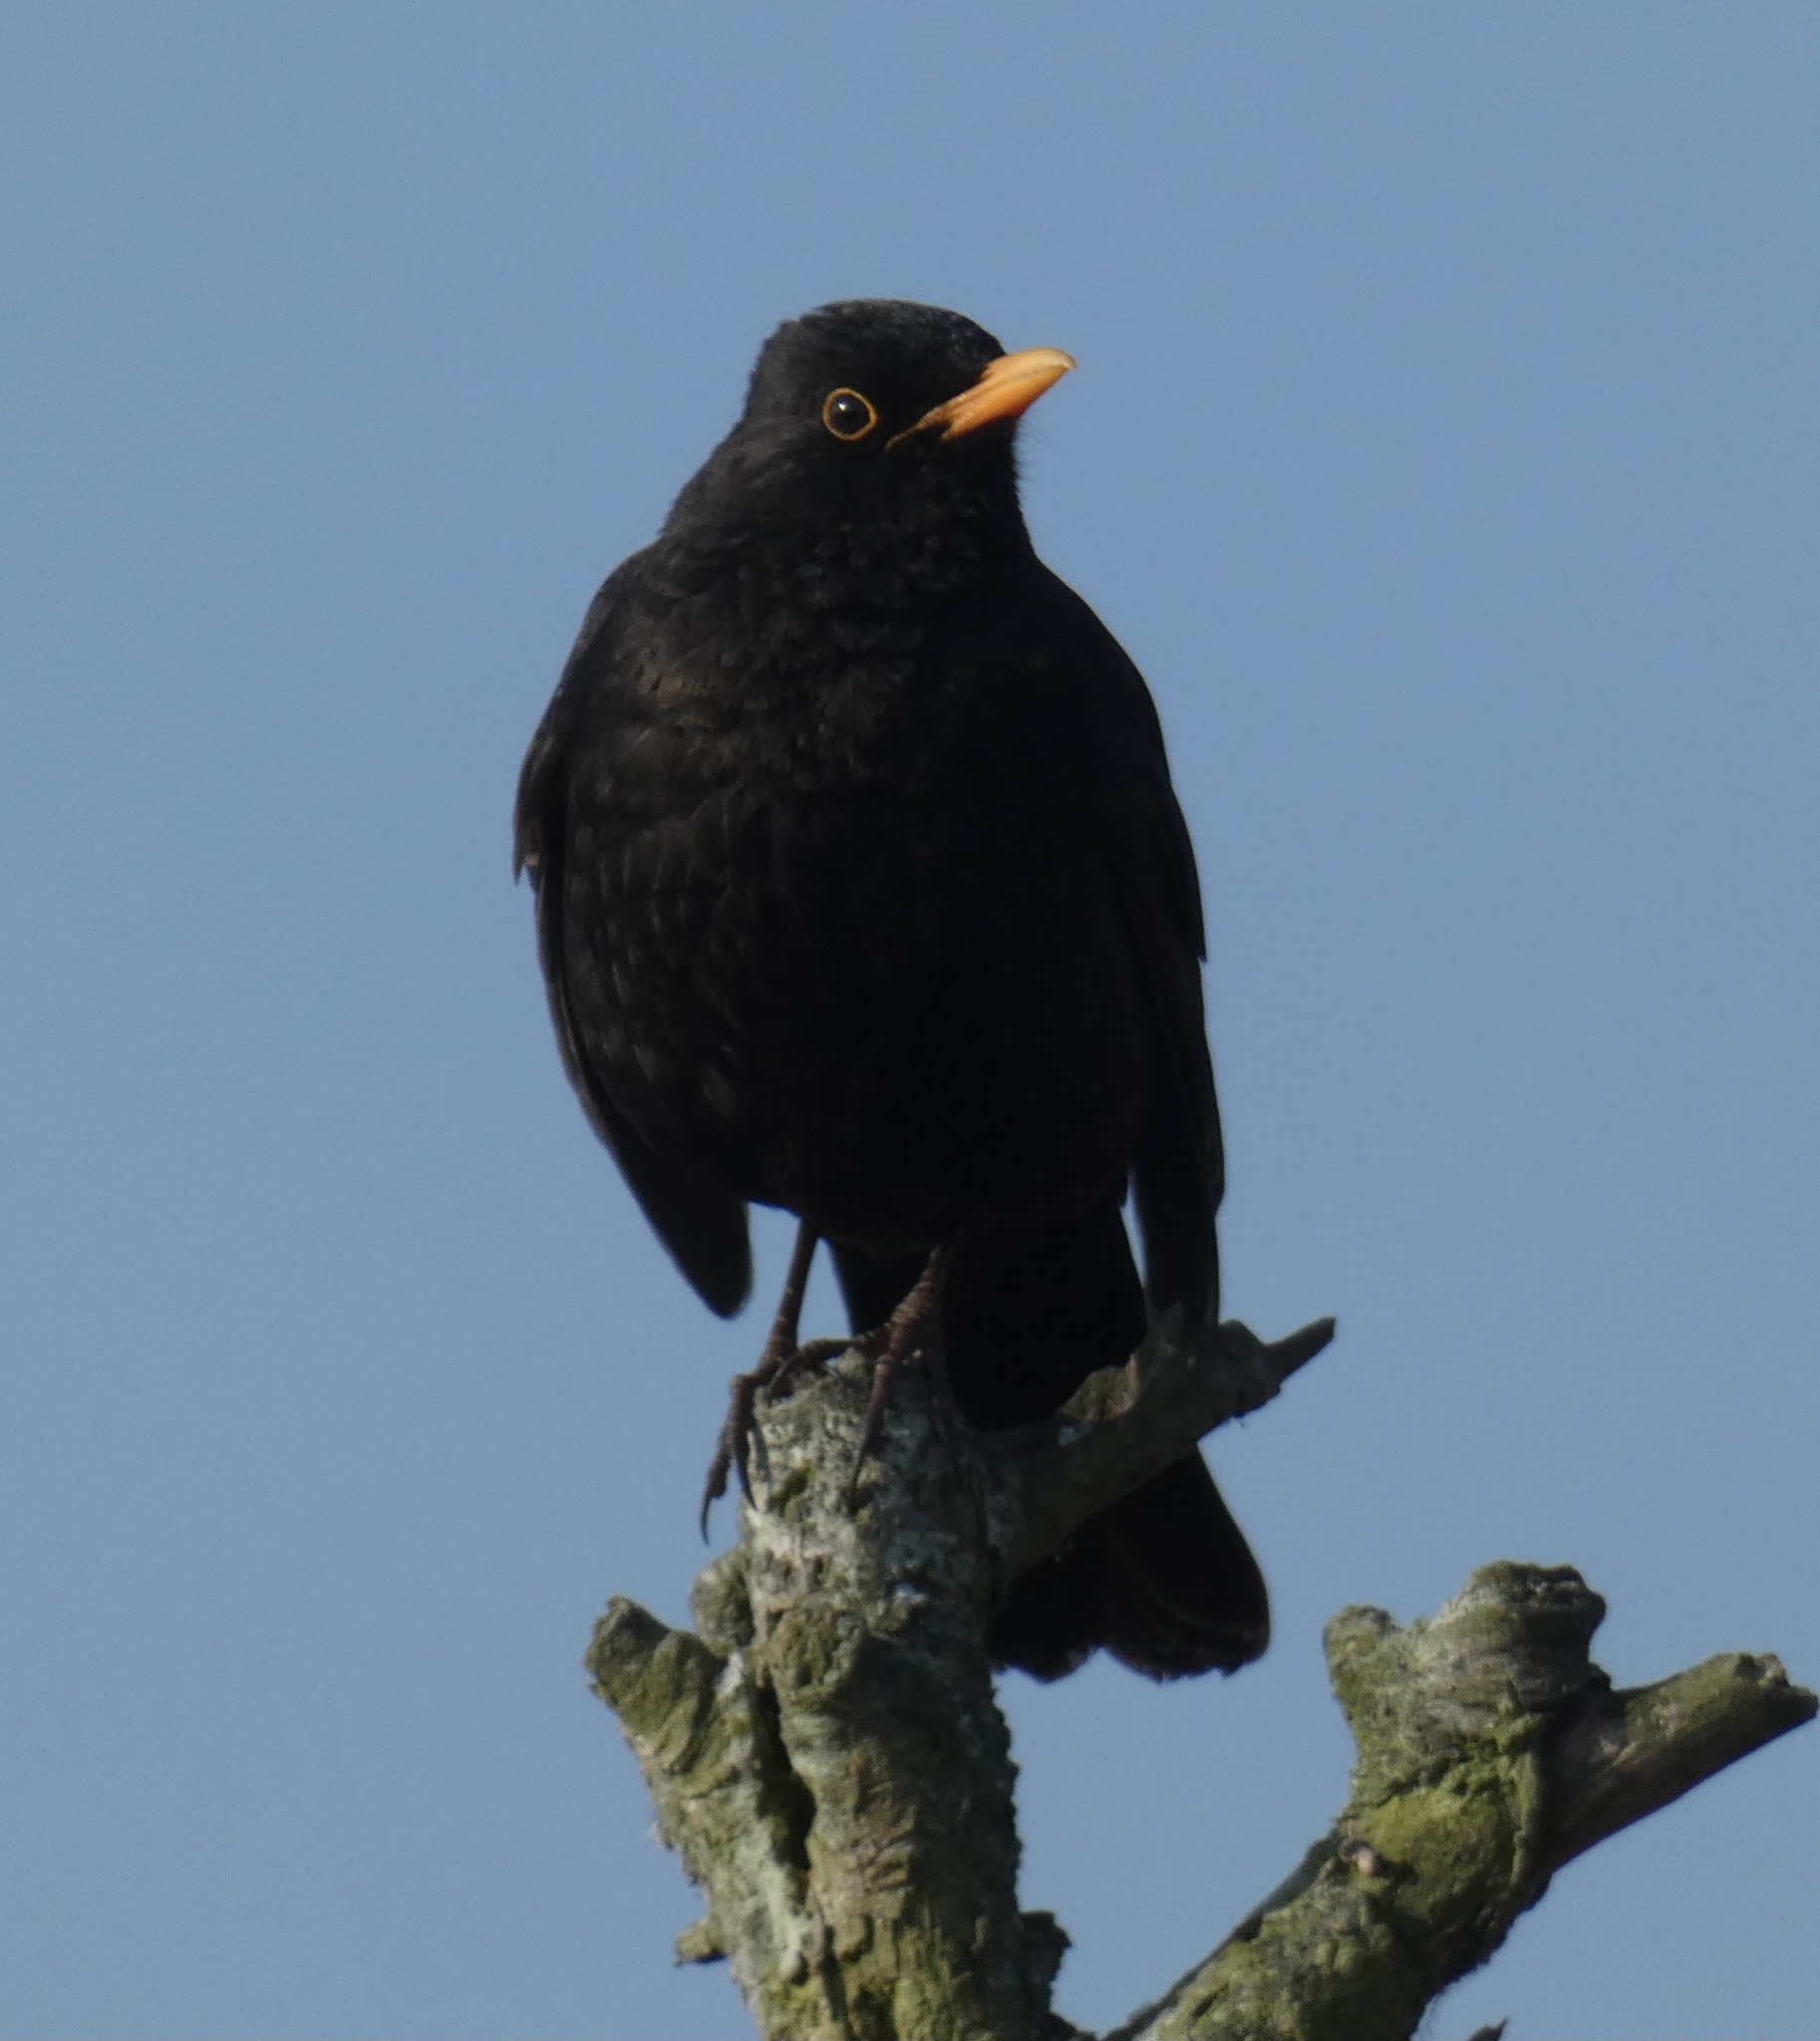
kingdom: Animalia
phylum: Chordata
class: Aves
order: Passeriformes
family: Turdidae
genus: Turdus
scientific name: Turdus merula
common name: Common blackbird
